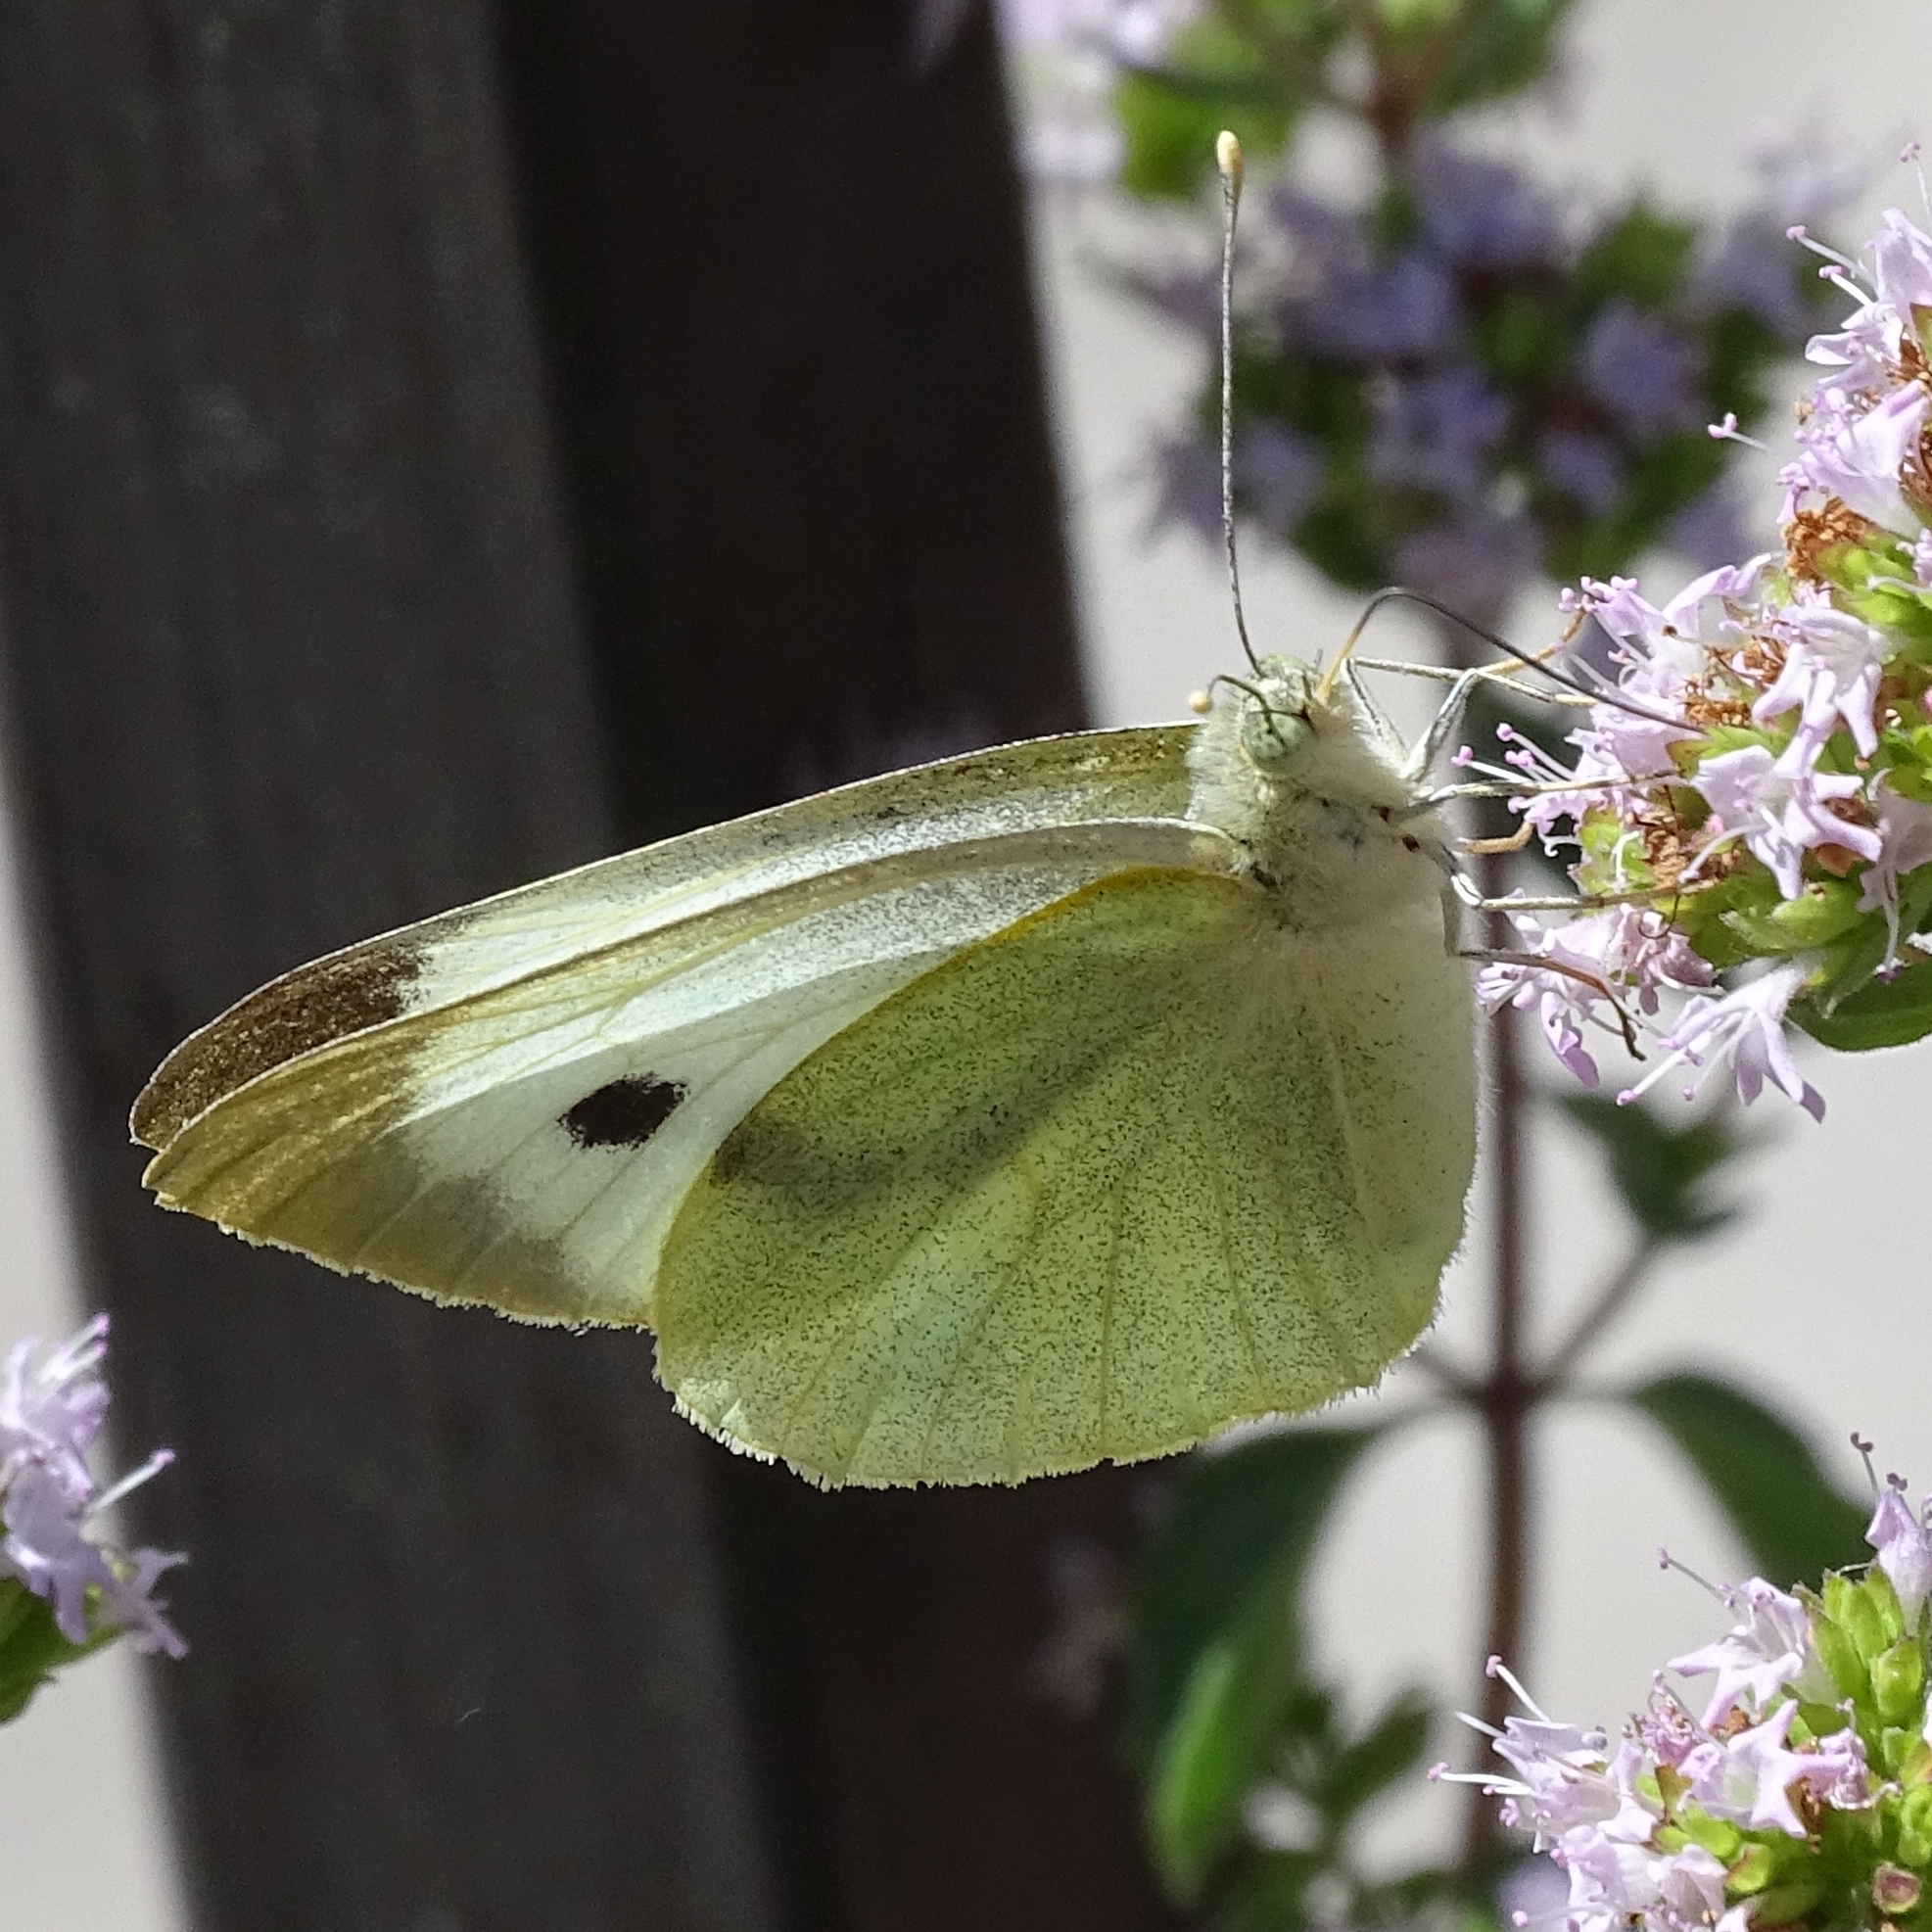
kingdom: Animalia
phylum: Arthropoda
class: Insecta
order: Lepidoptera
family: Pieridae
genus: Pieris
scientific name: Pieris brassicae
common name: Large white
